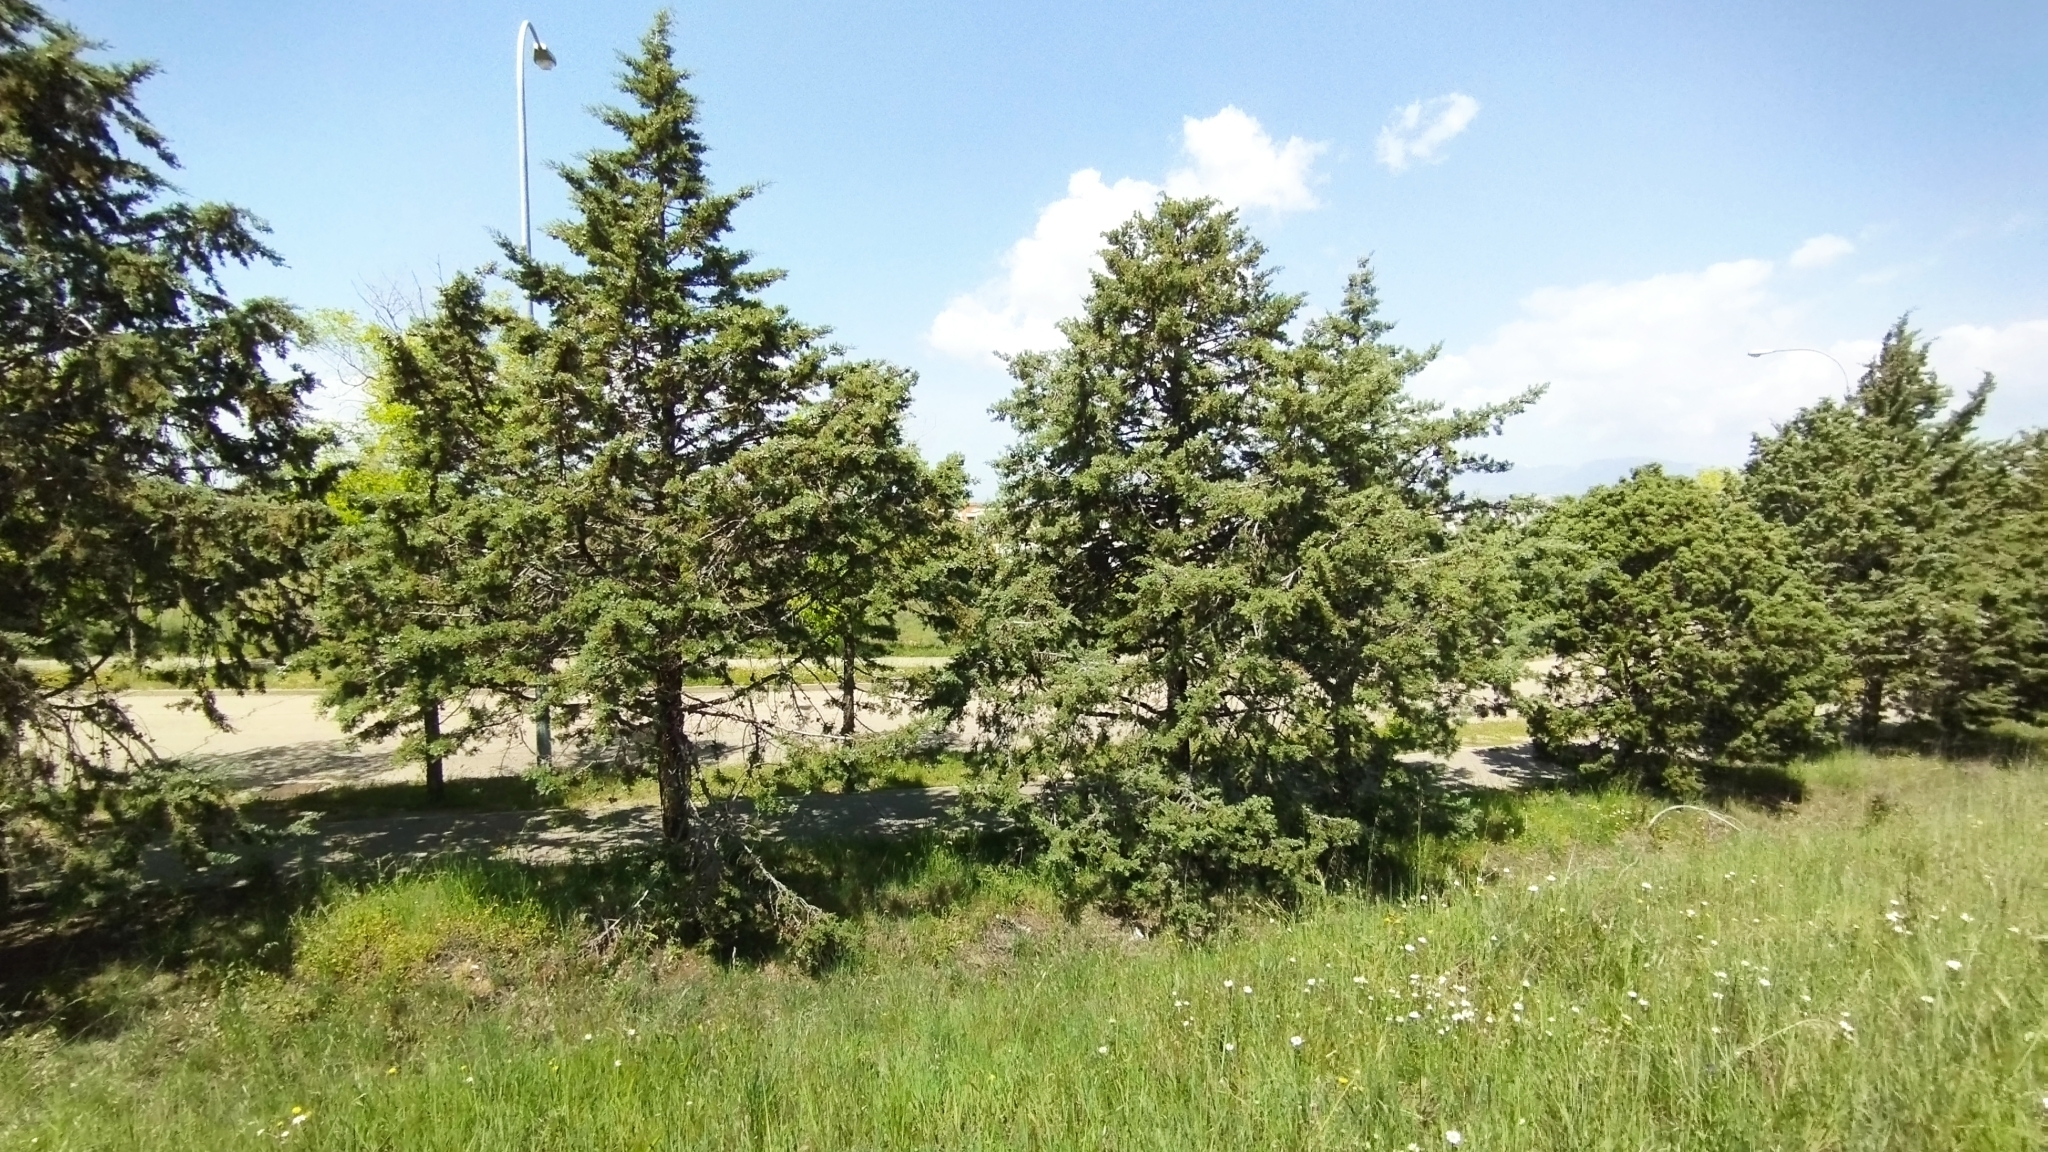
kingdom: Plantae
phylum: Tracheophyta
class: Pinopsida
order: Pinales
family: Cupressaceae
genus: Cupressus
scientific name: Cupressus arizonica
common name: Arizona cypress
